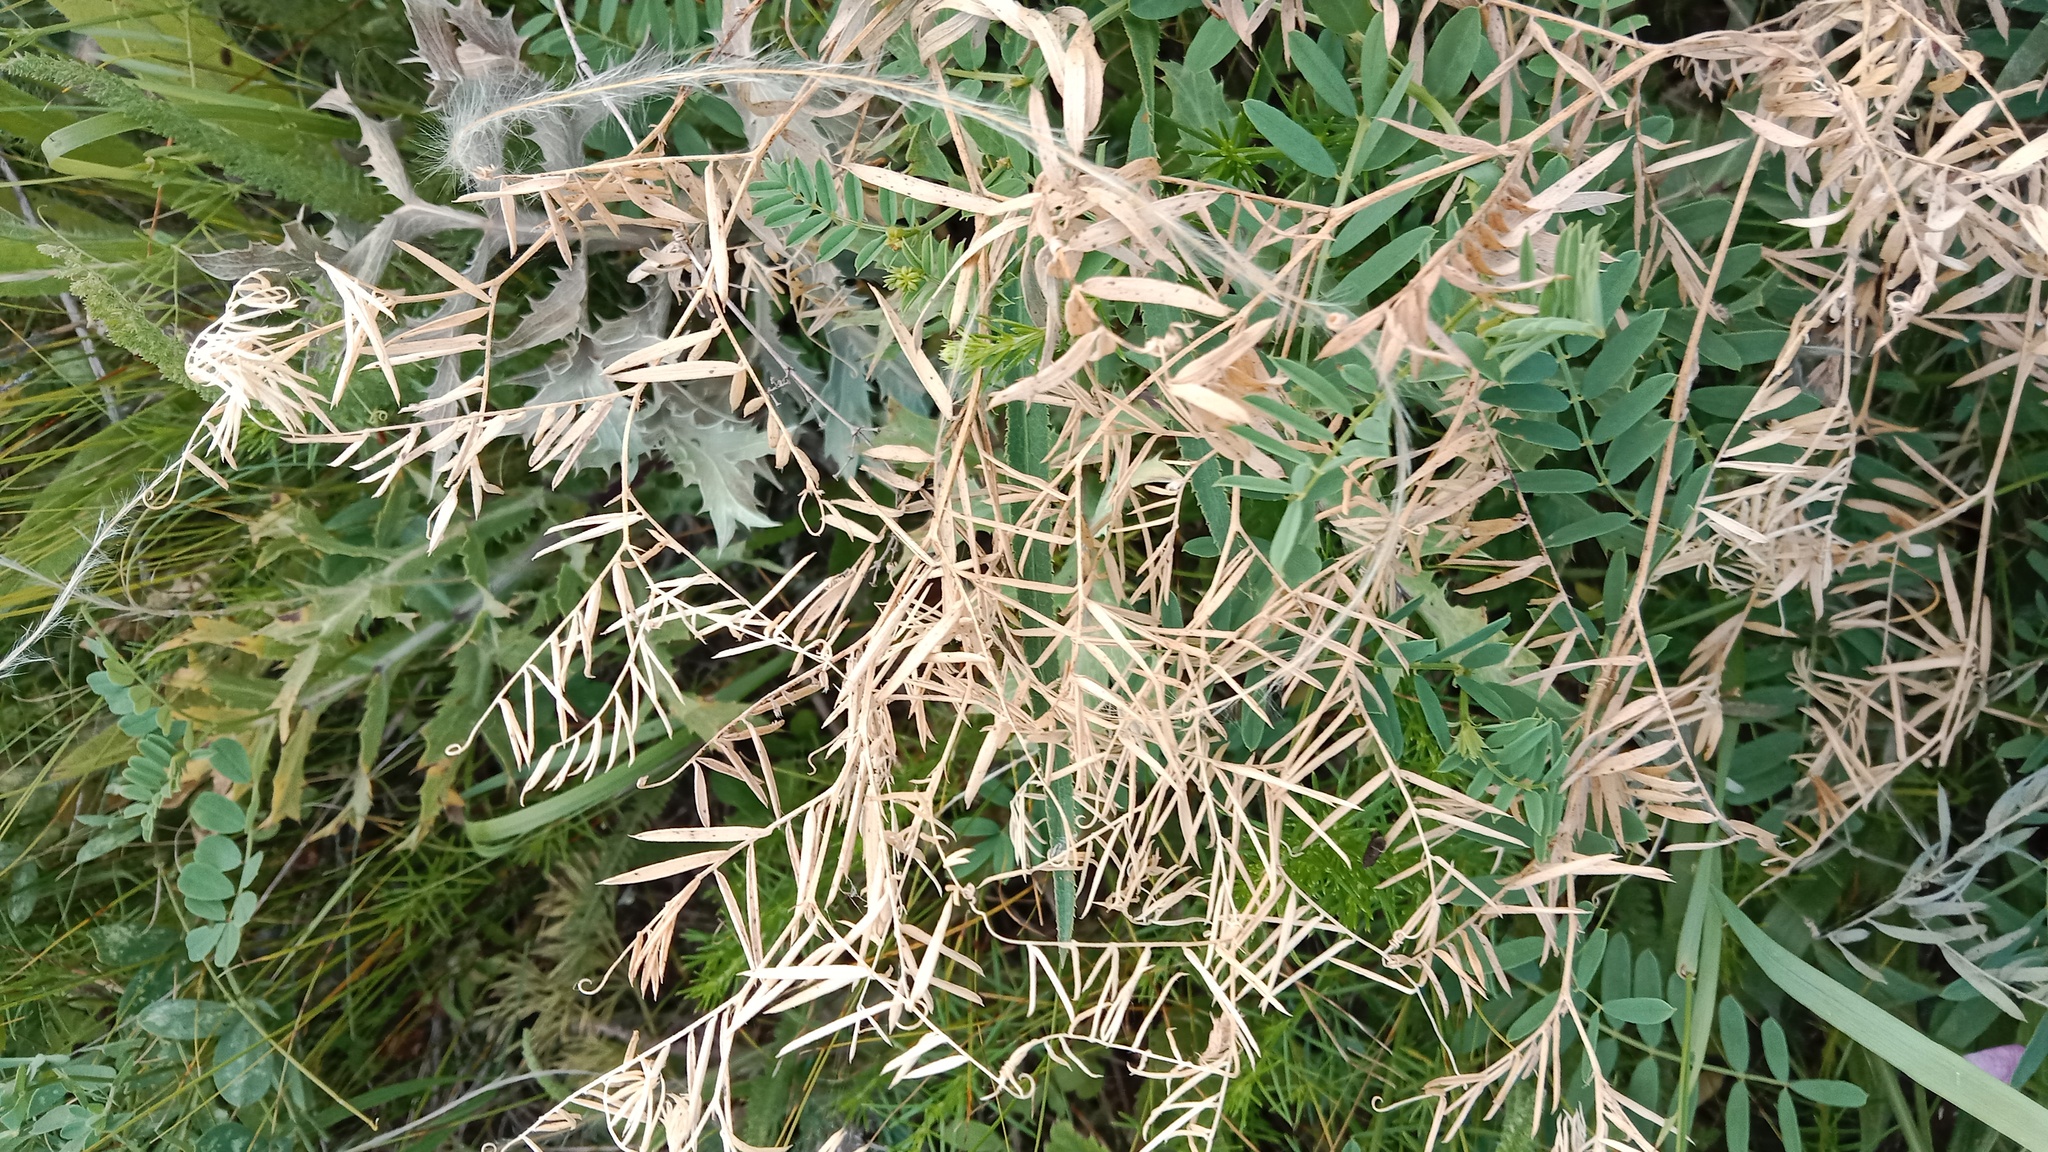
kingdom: Plantae
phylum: Tracheophyta
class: Magnoliopsida
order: Fabales
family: Fabaceae
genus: Galega
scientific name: Galega officinalis
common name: Goat's-rue
